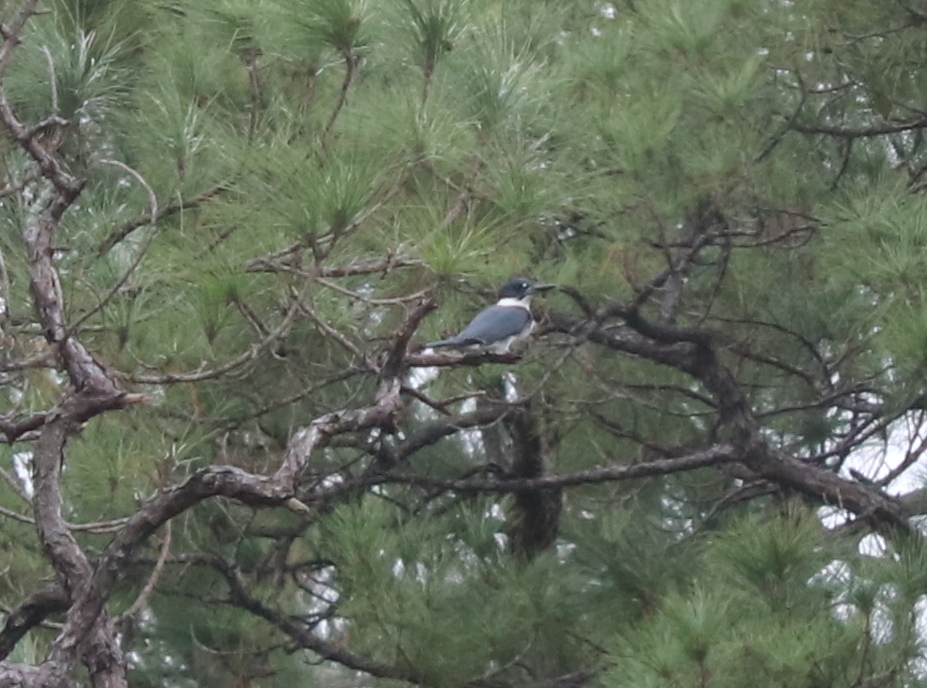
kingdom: Animalia
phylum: Chordata
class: Aves
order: Coraciiformes
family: Alcedinidae
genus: Megaceryle
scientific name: Megaceryle alcyon
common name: Belted kingfisher
